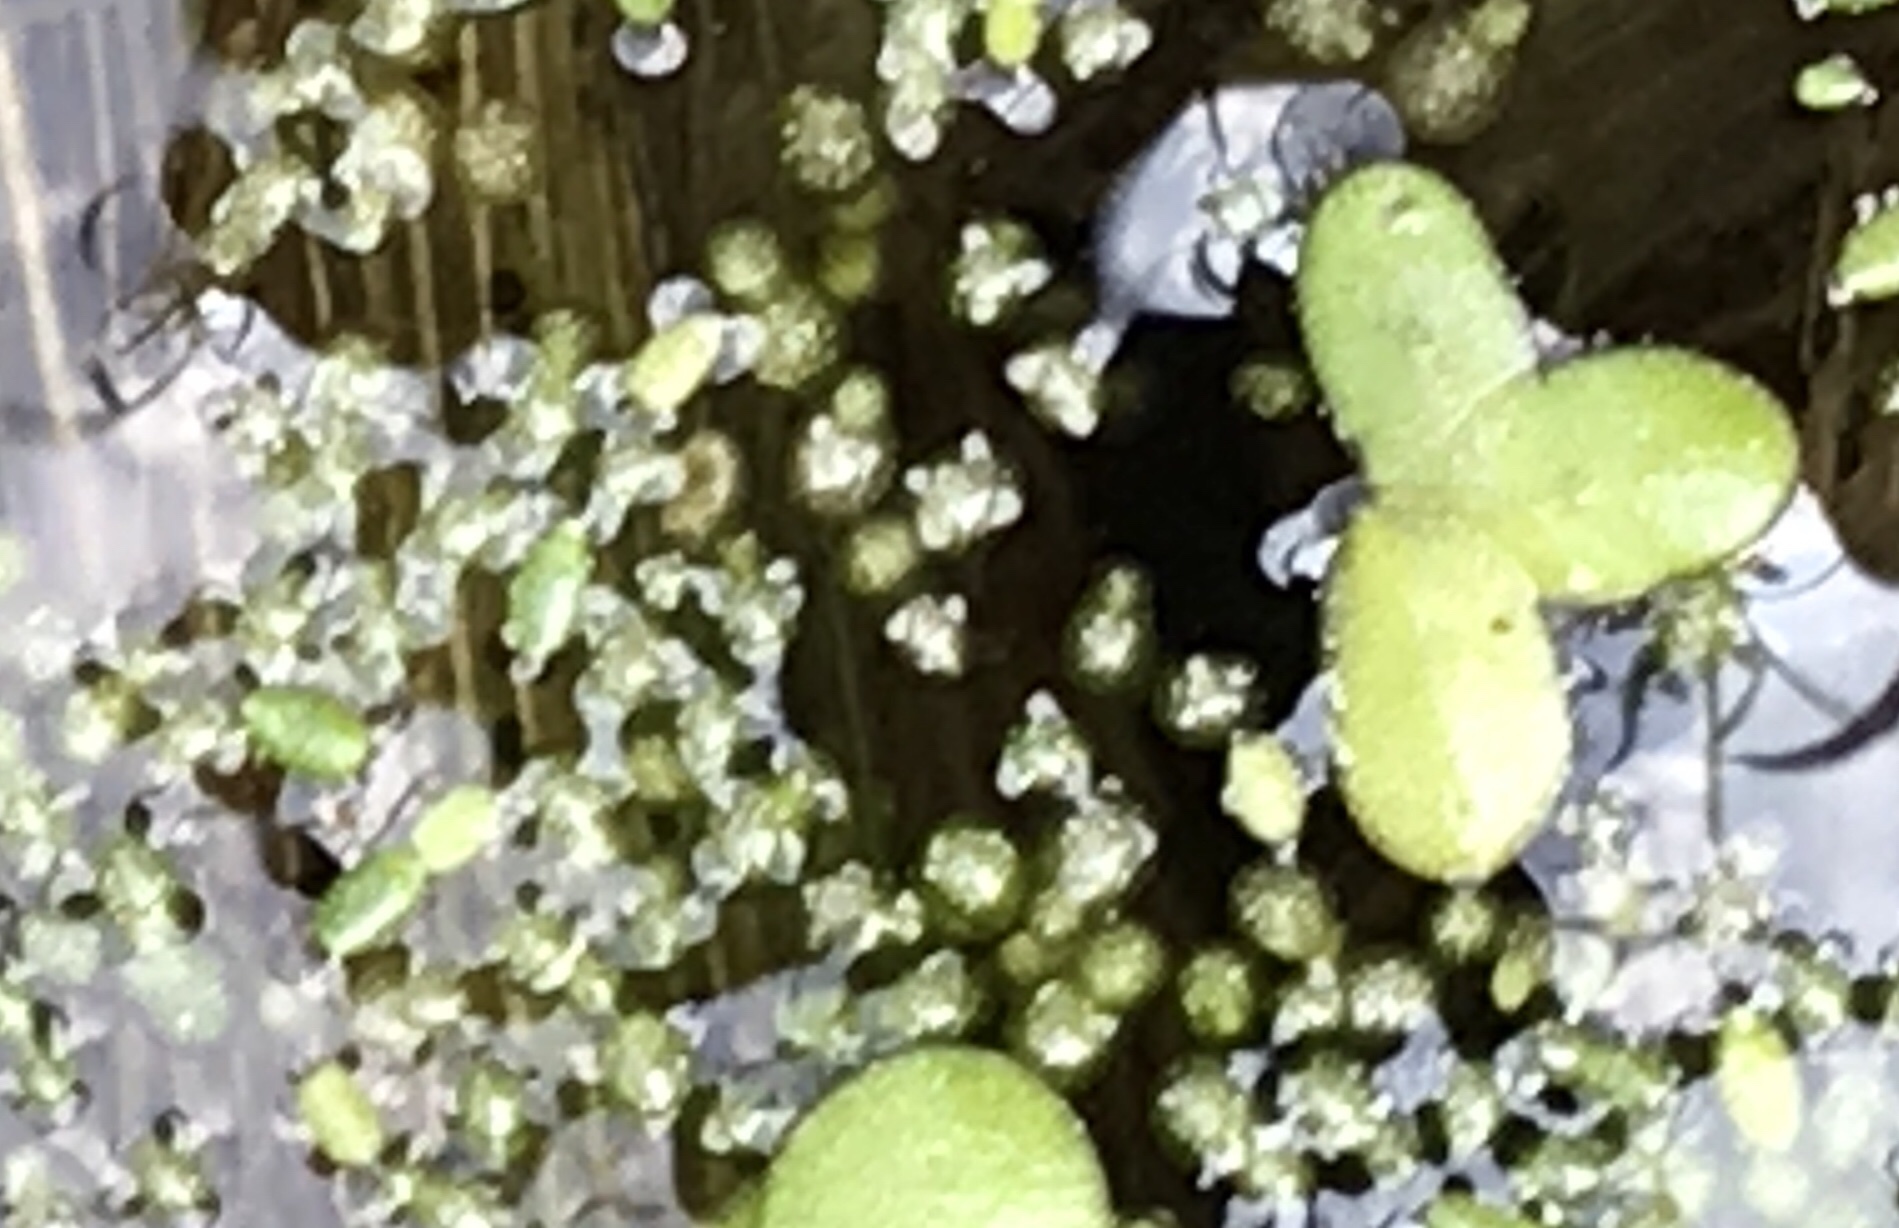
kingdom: Plantae
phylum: Tracheophyta
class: Liliopsida
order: Alismatales
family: Araceae
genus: Wolffia
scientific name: Wolffia columbiana
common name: Columbia watermeal
